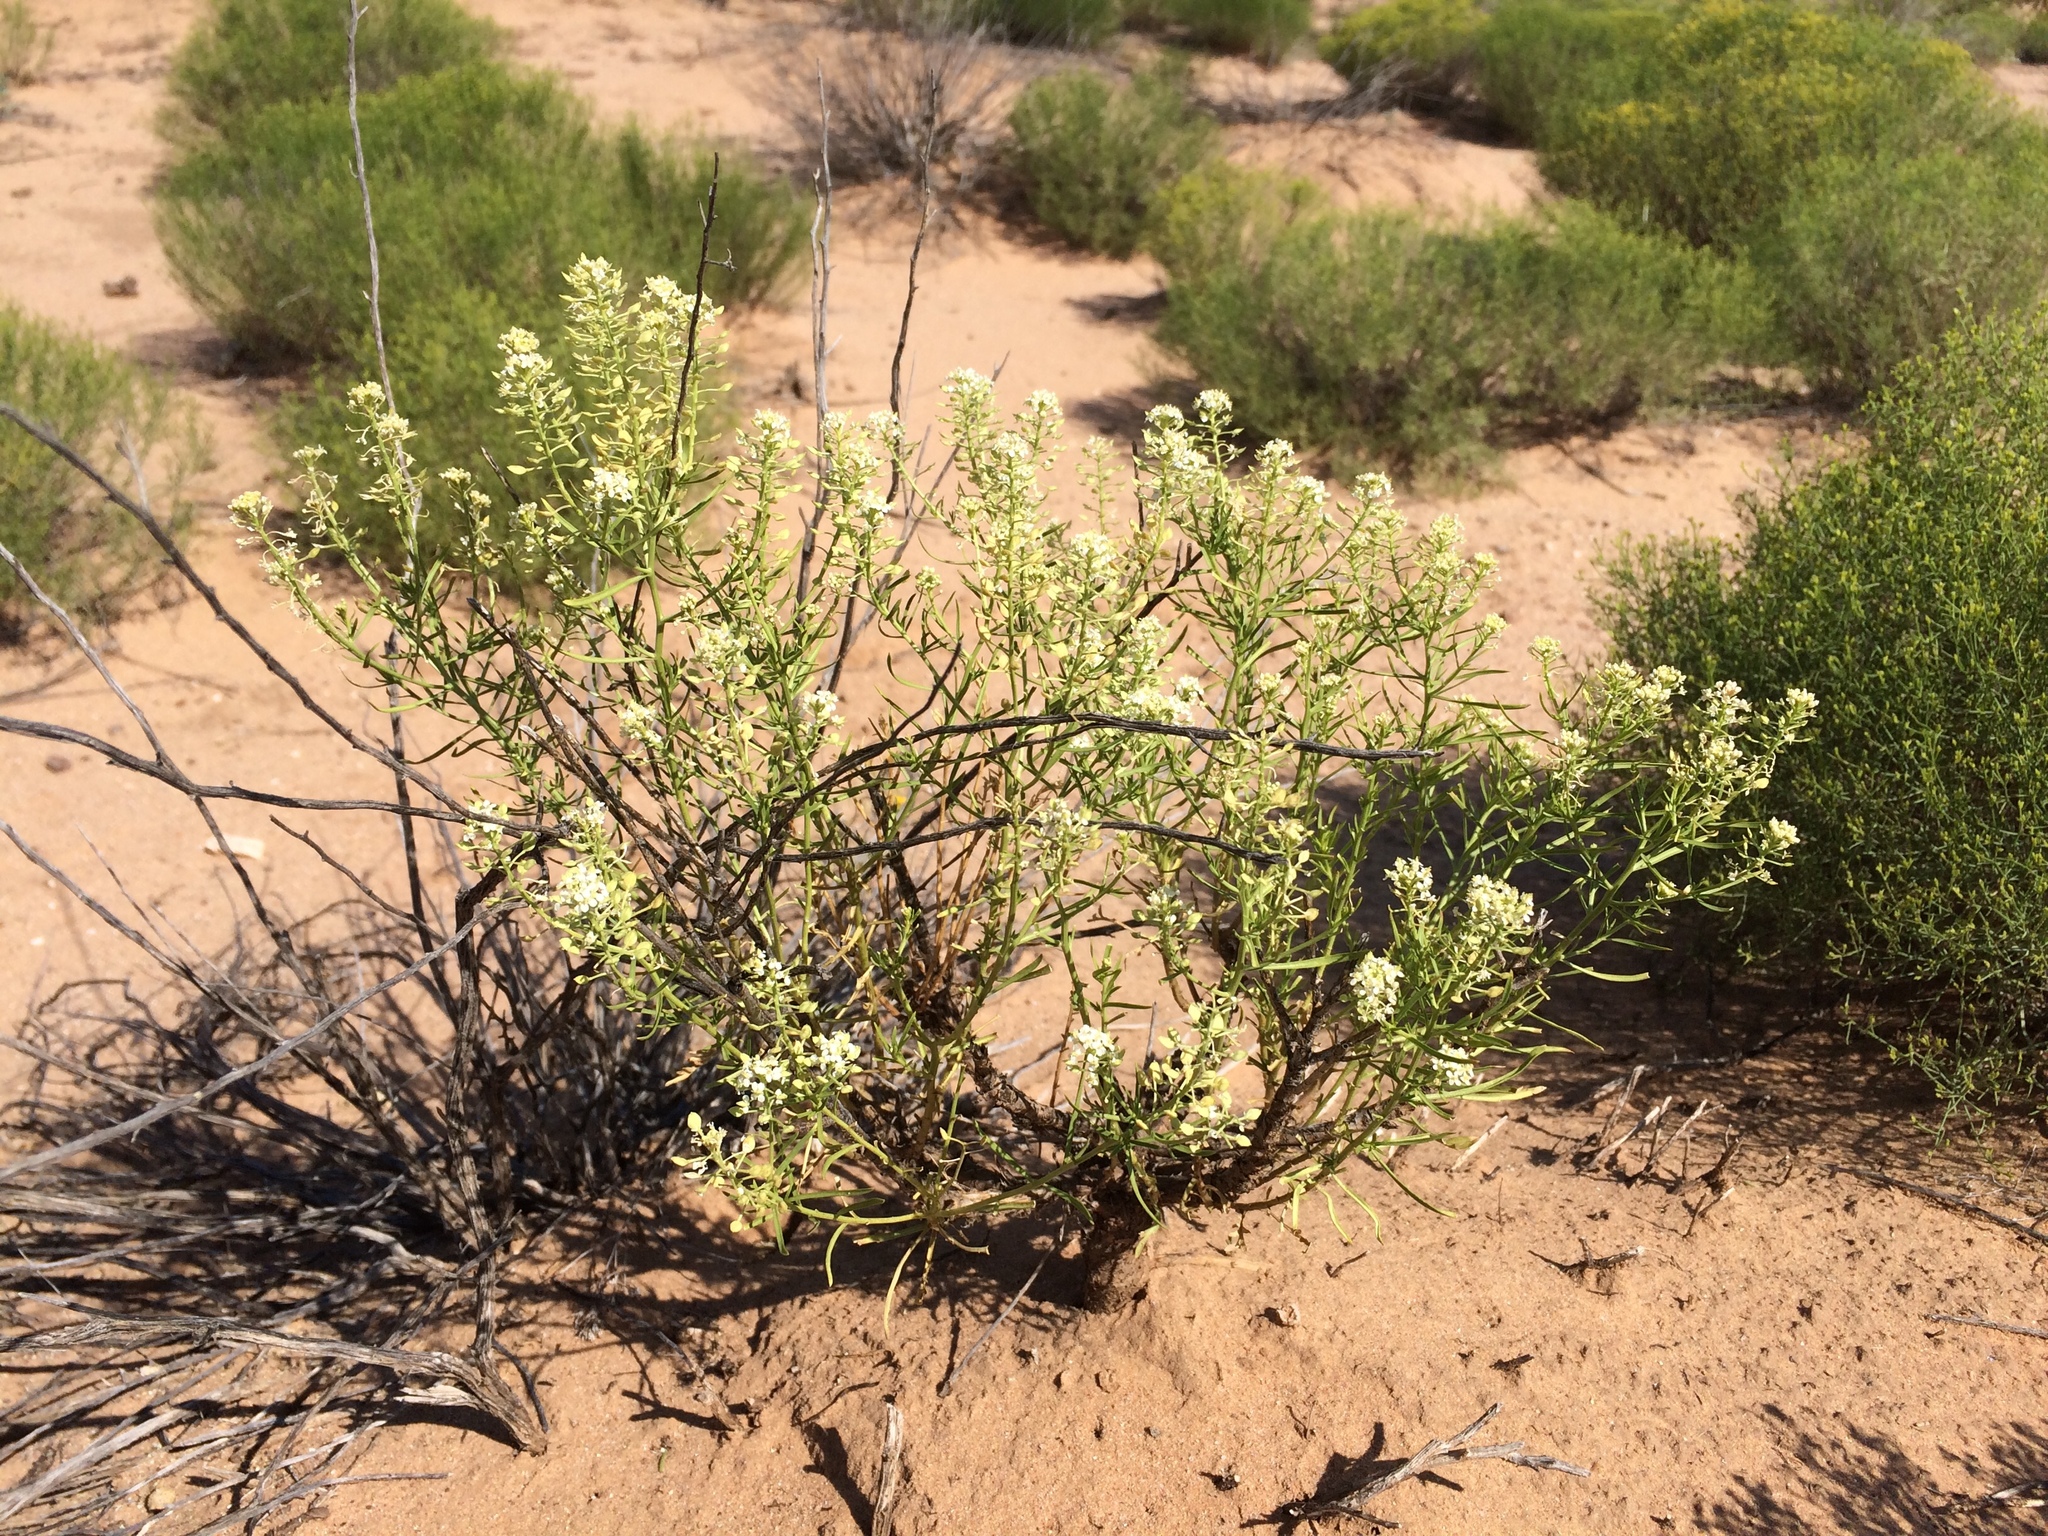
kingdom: Plantae
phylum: Tracheophyta
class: Magnoliopsida
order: Brassicales
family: Brassicaceae
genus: Lepidium
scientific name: Lepidium alyssoides
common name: Mesa pepperweed
